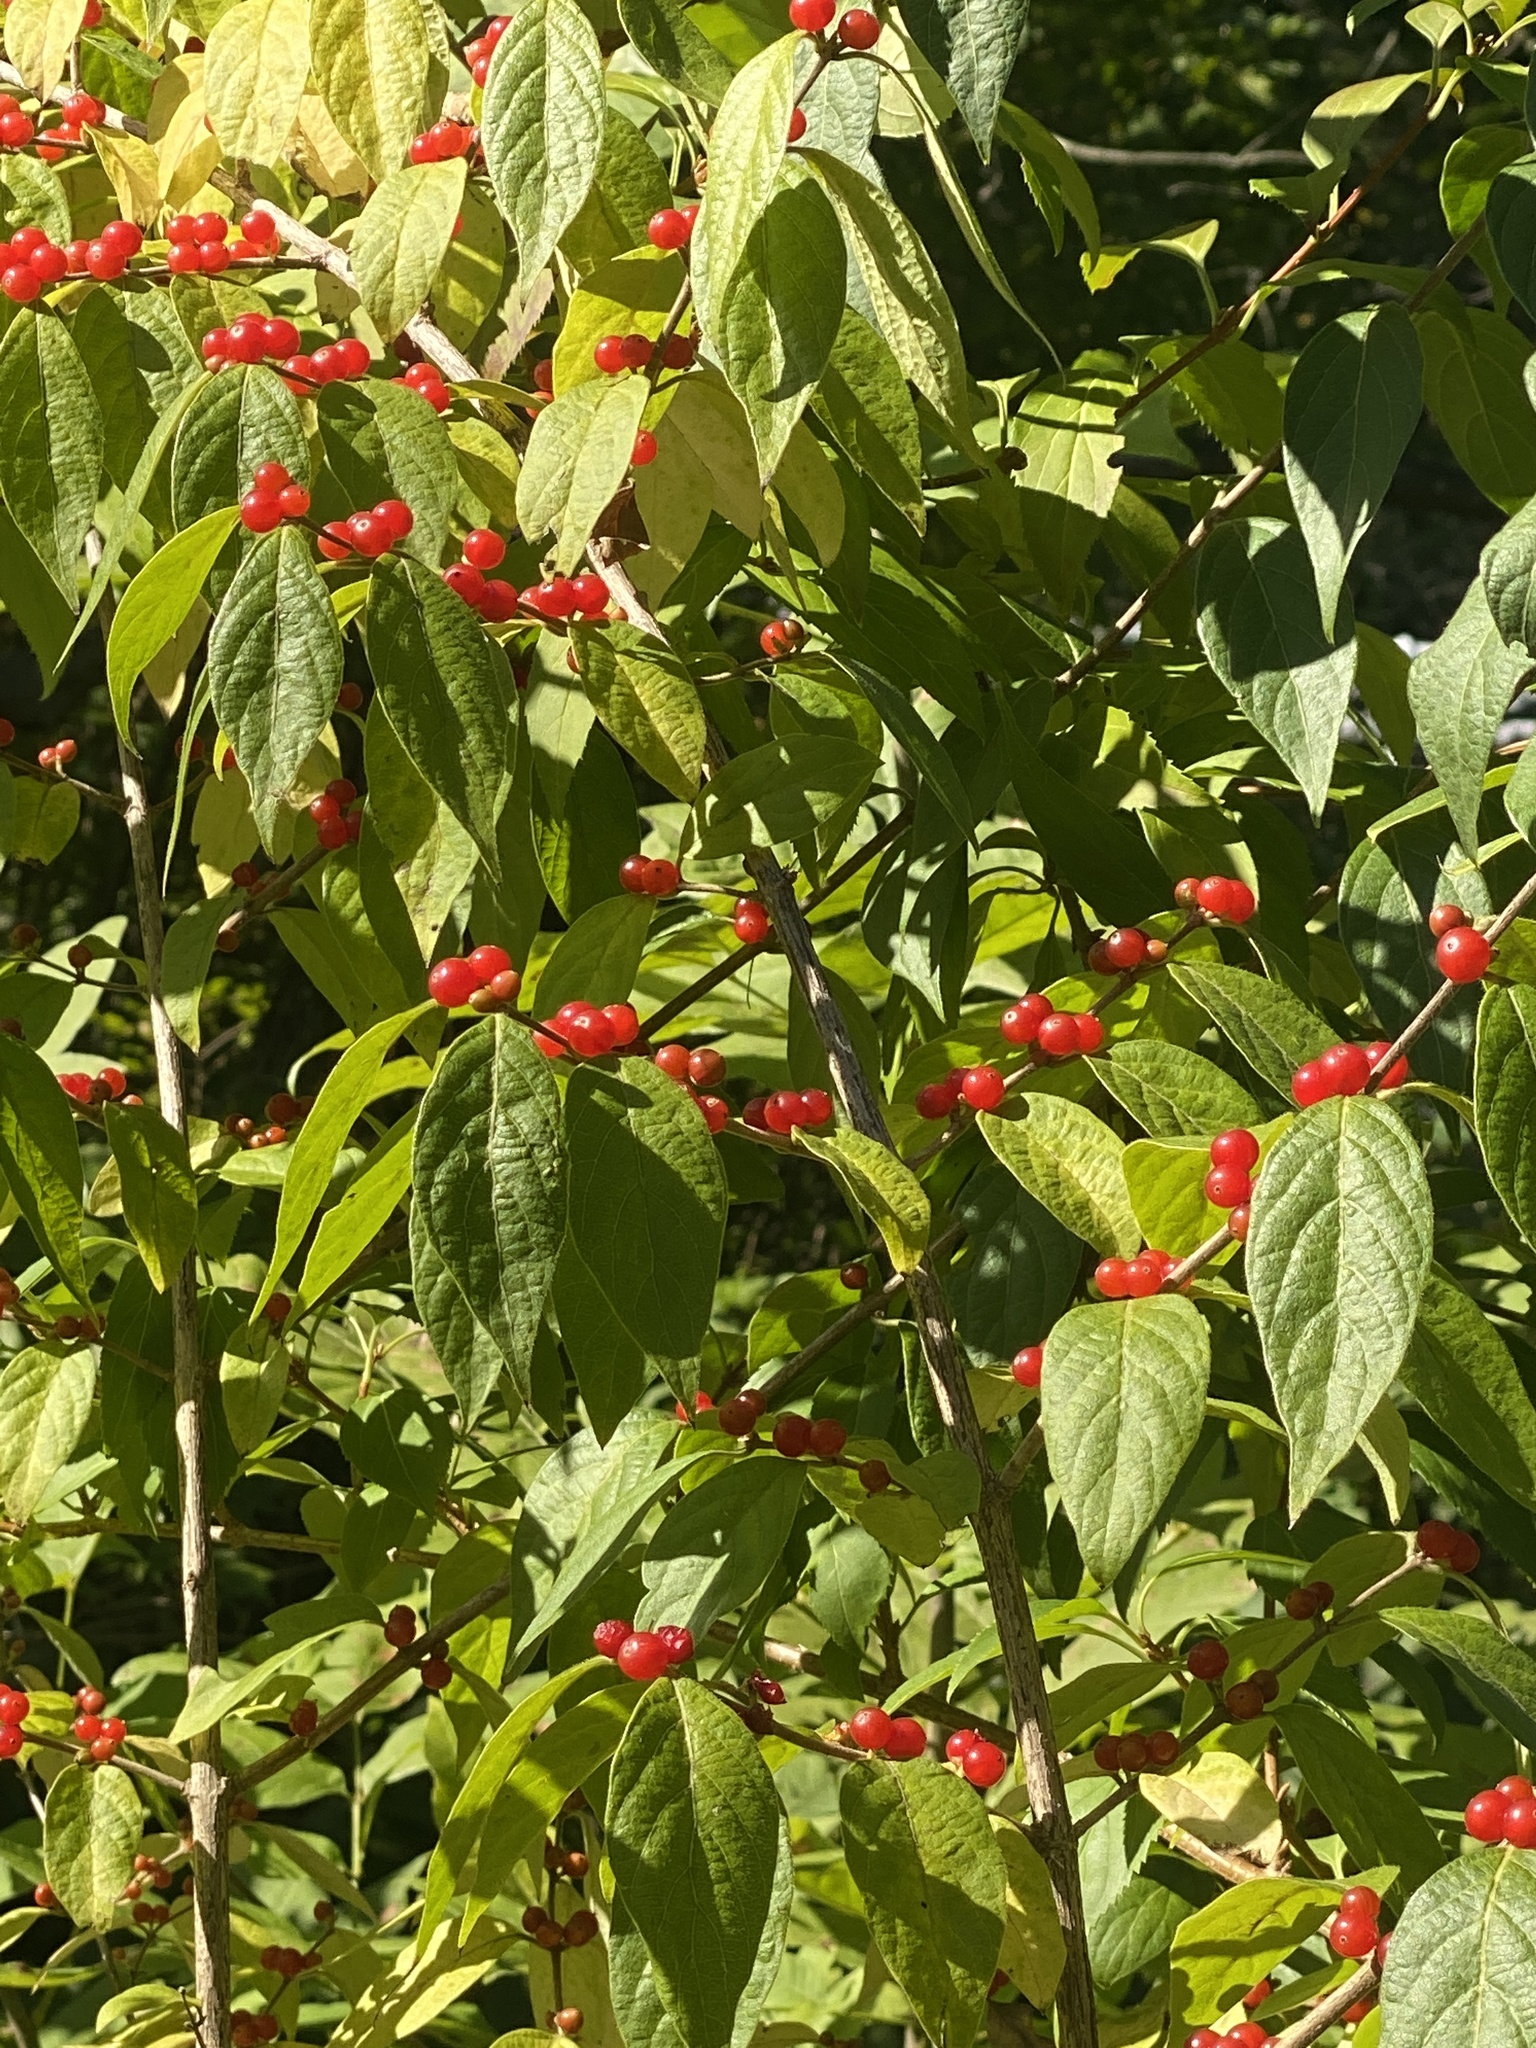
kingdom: Plantae
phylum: Tracheophyta
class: Magnoliopsida
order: Dipsacales
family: Caprifoliaceae
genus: Lonicera
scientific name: Lonicera maackii
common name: Amur honeysuckle
